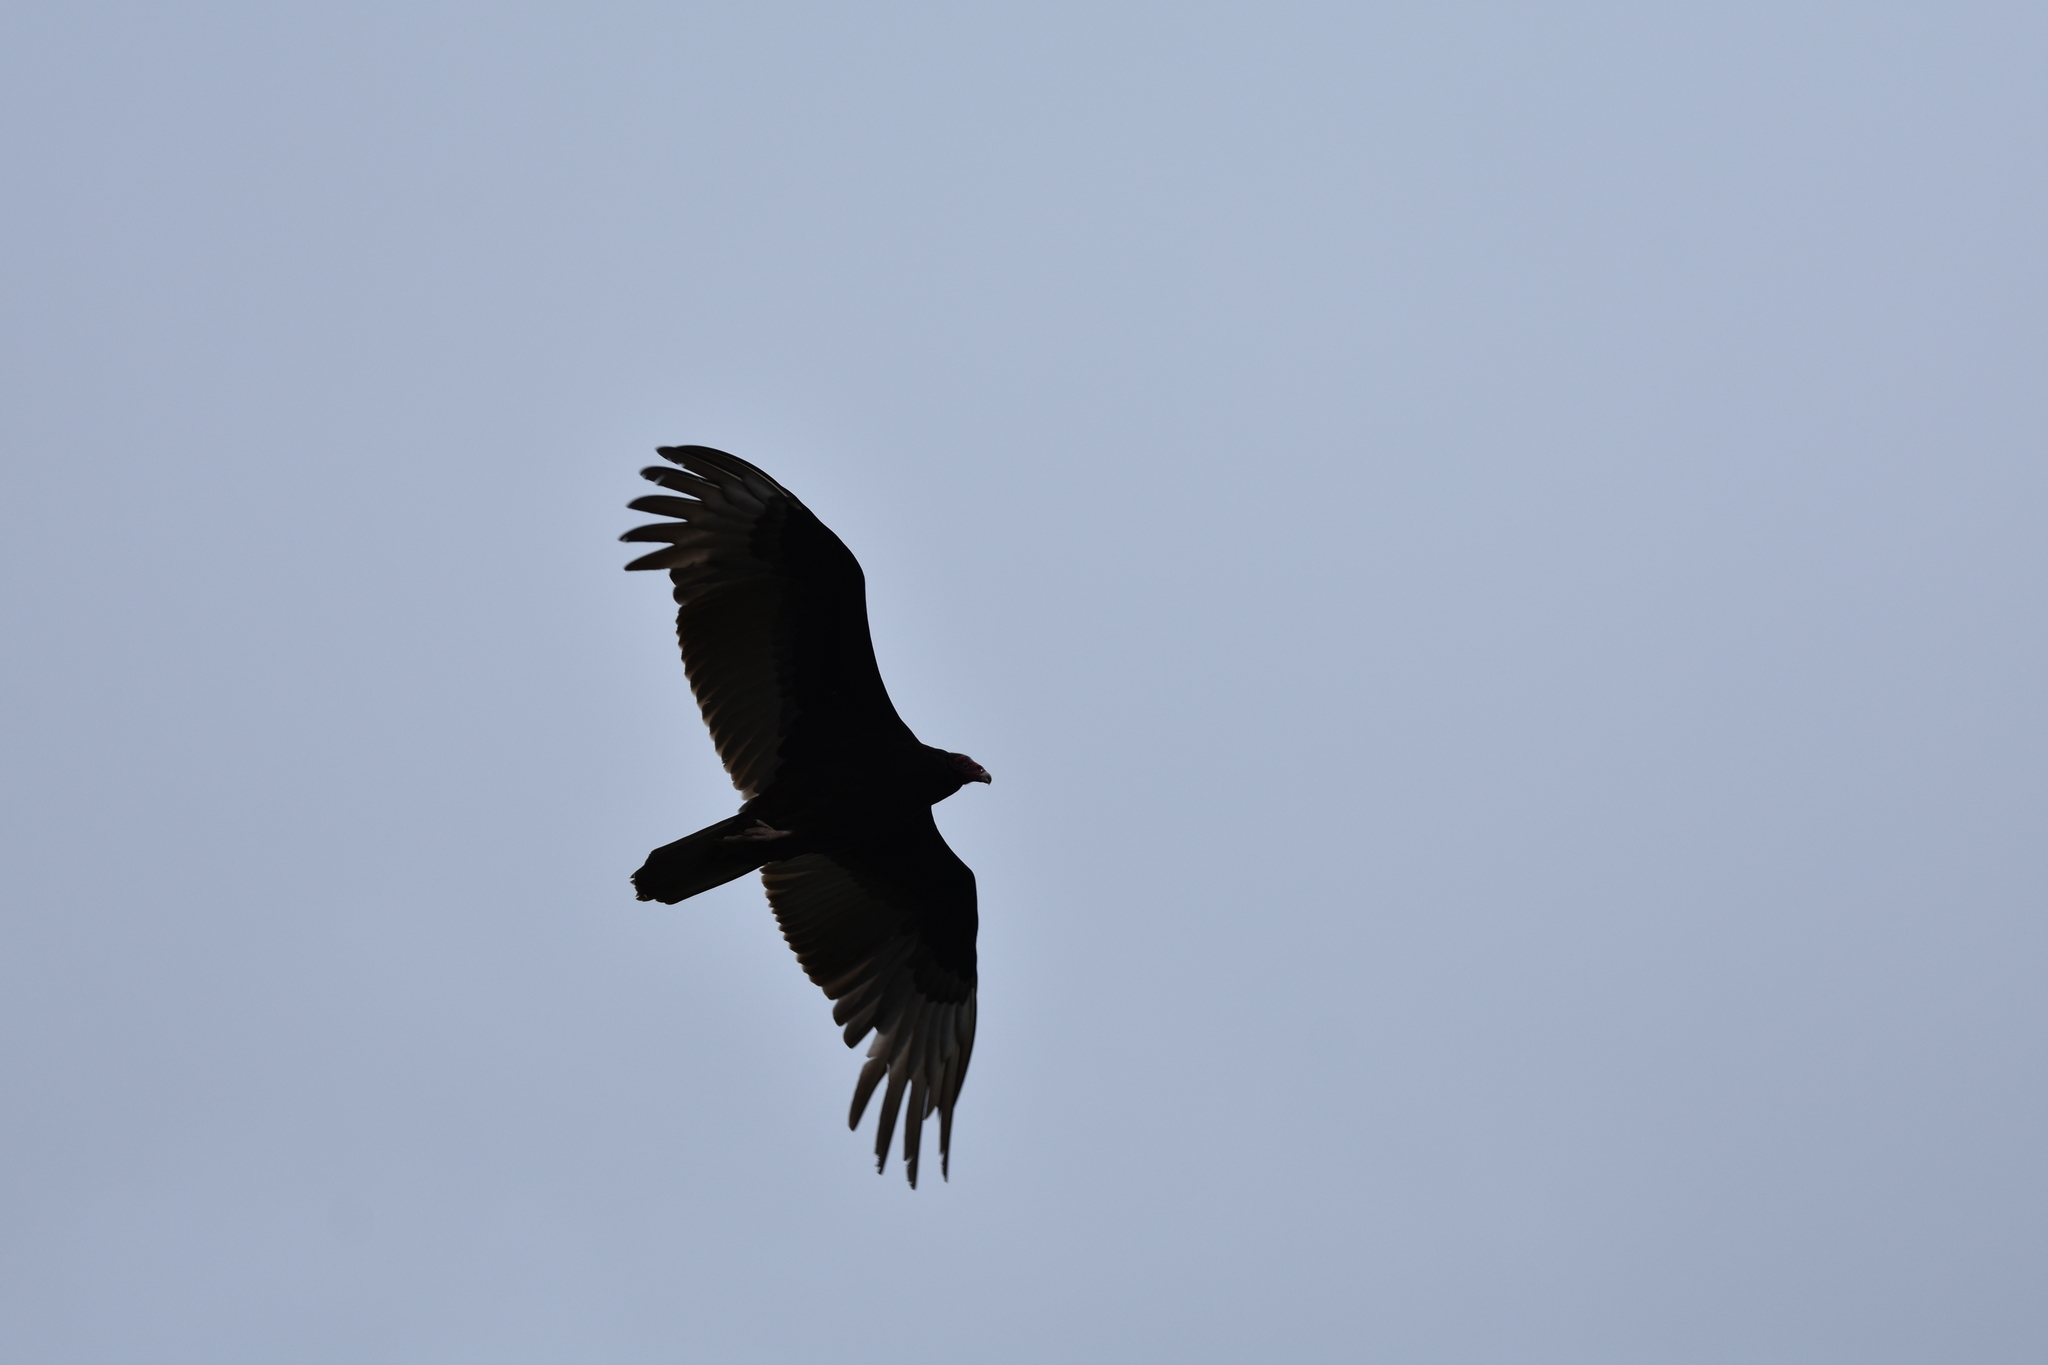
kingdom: Animalia
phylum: Chordata
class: Aves
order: Accipitriformes
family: Cathartidae
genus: Cathartes
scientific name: Cathartes aura
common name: Turkey vulture
